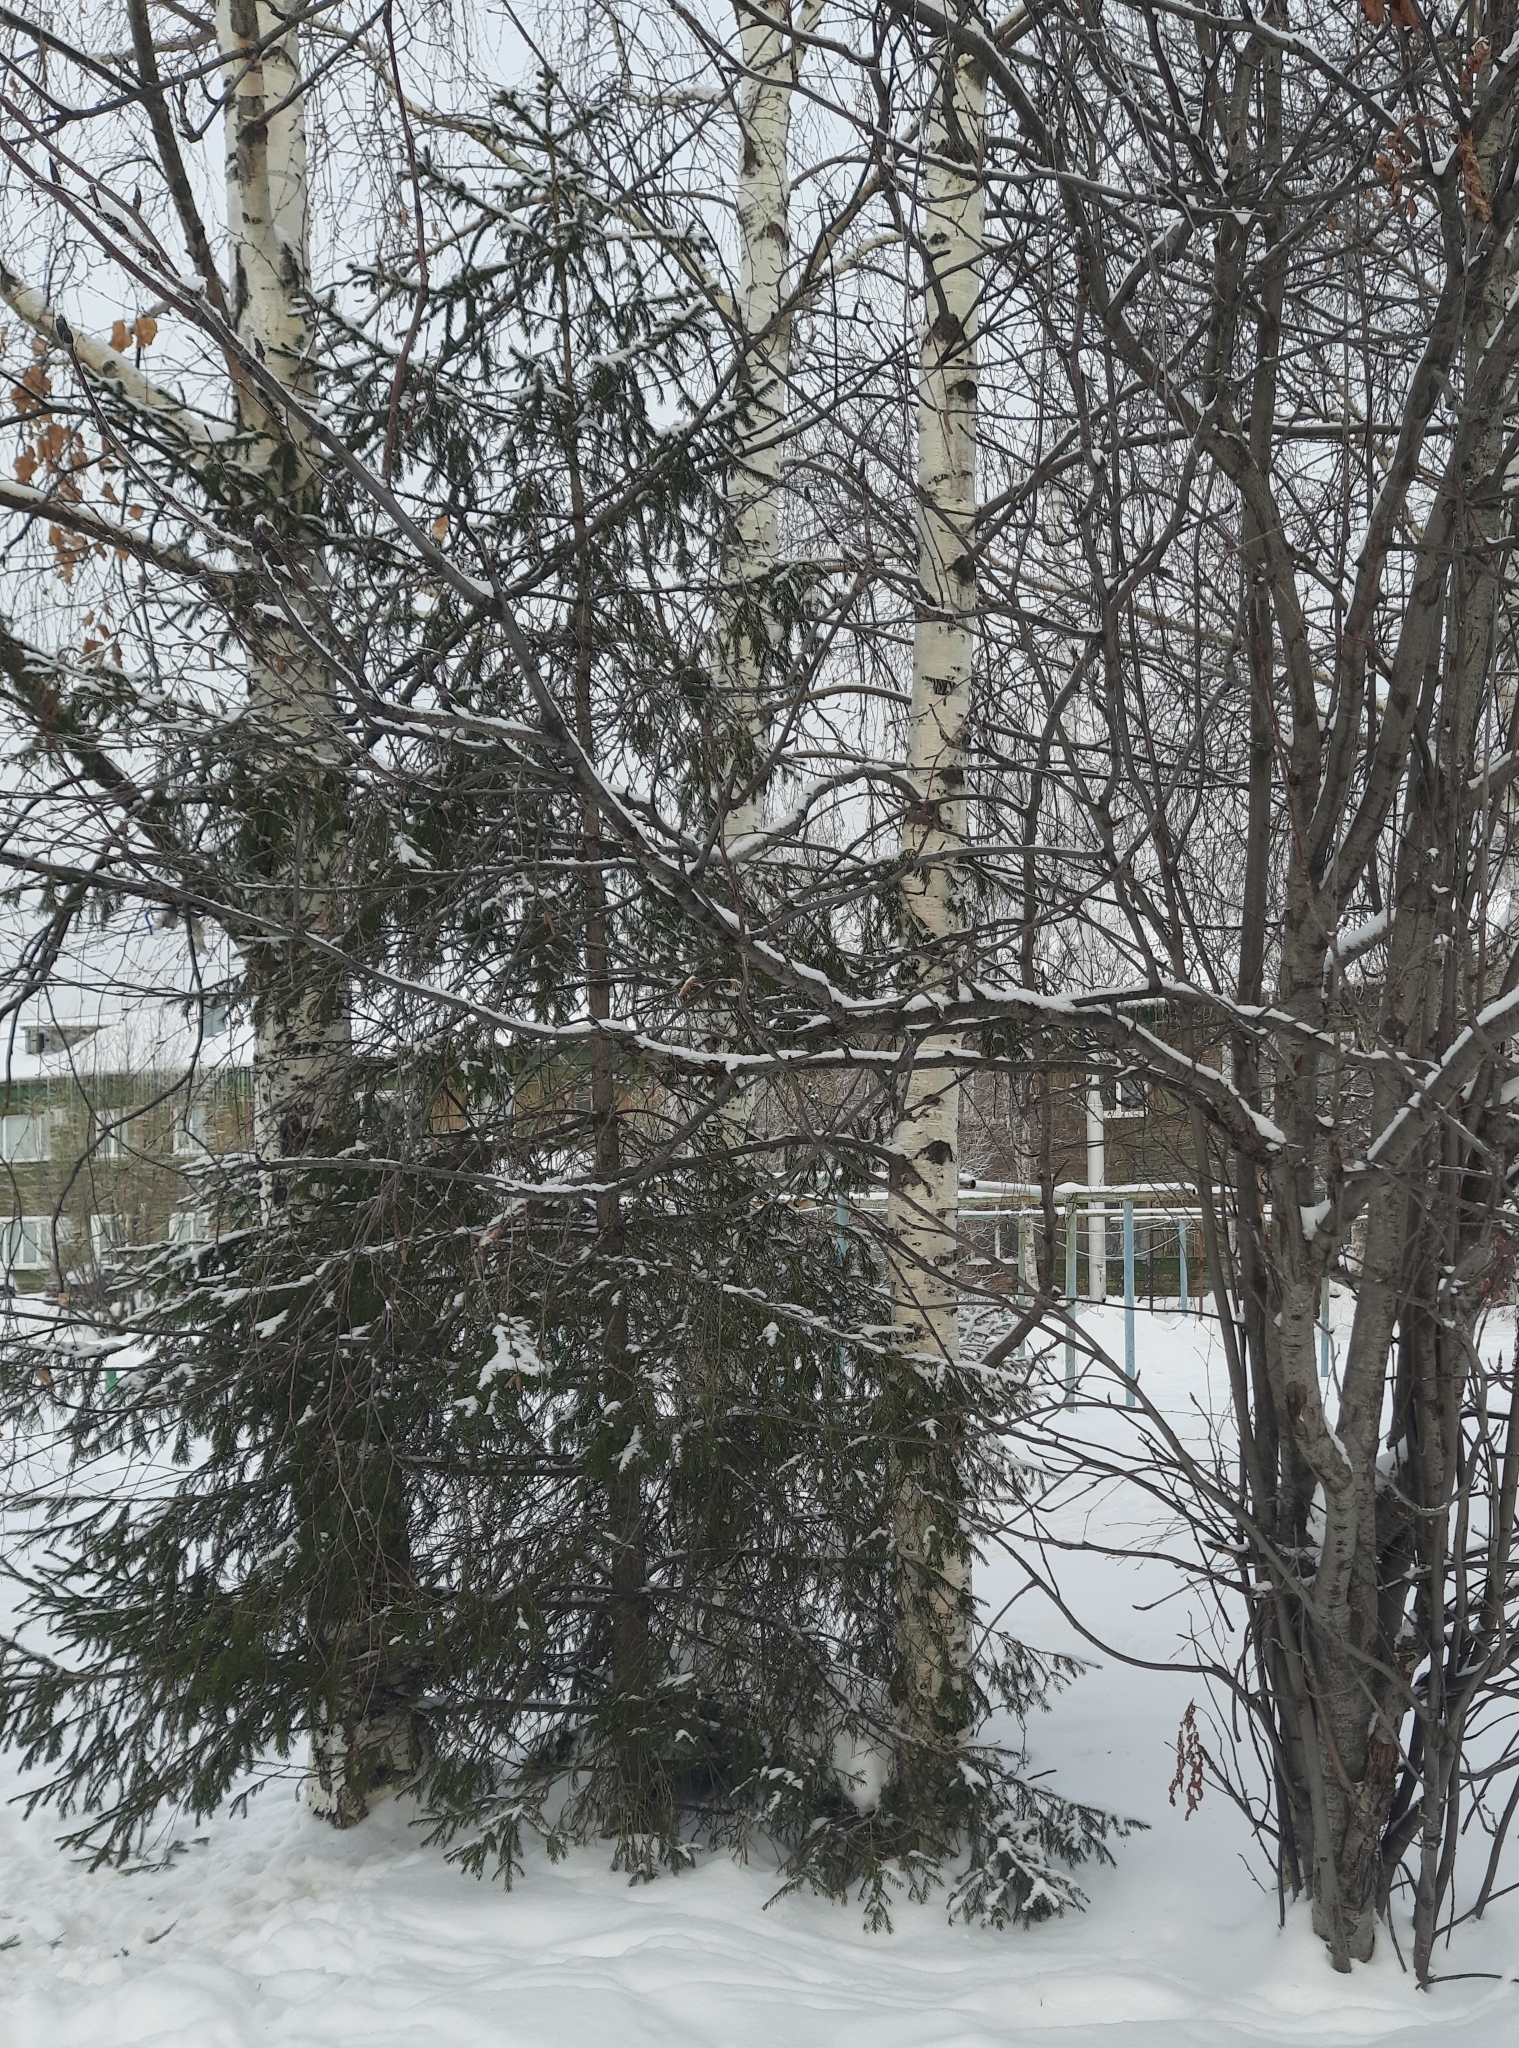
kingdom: Plantae
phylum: Tracheophyta
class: Pinopsida
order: Pinales
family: Pinaceae
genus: Picea
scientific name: Picea obovata
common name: Siberian spruce
